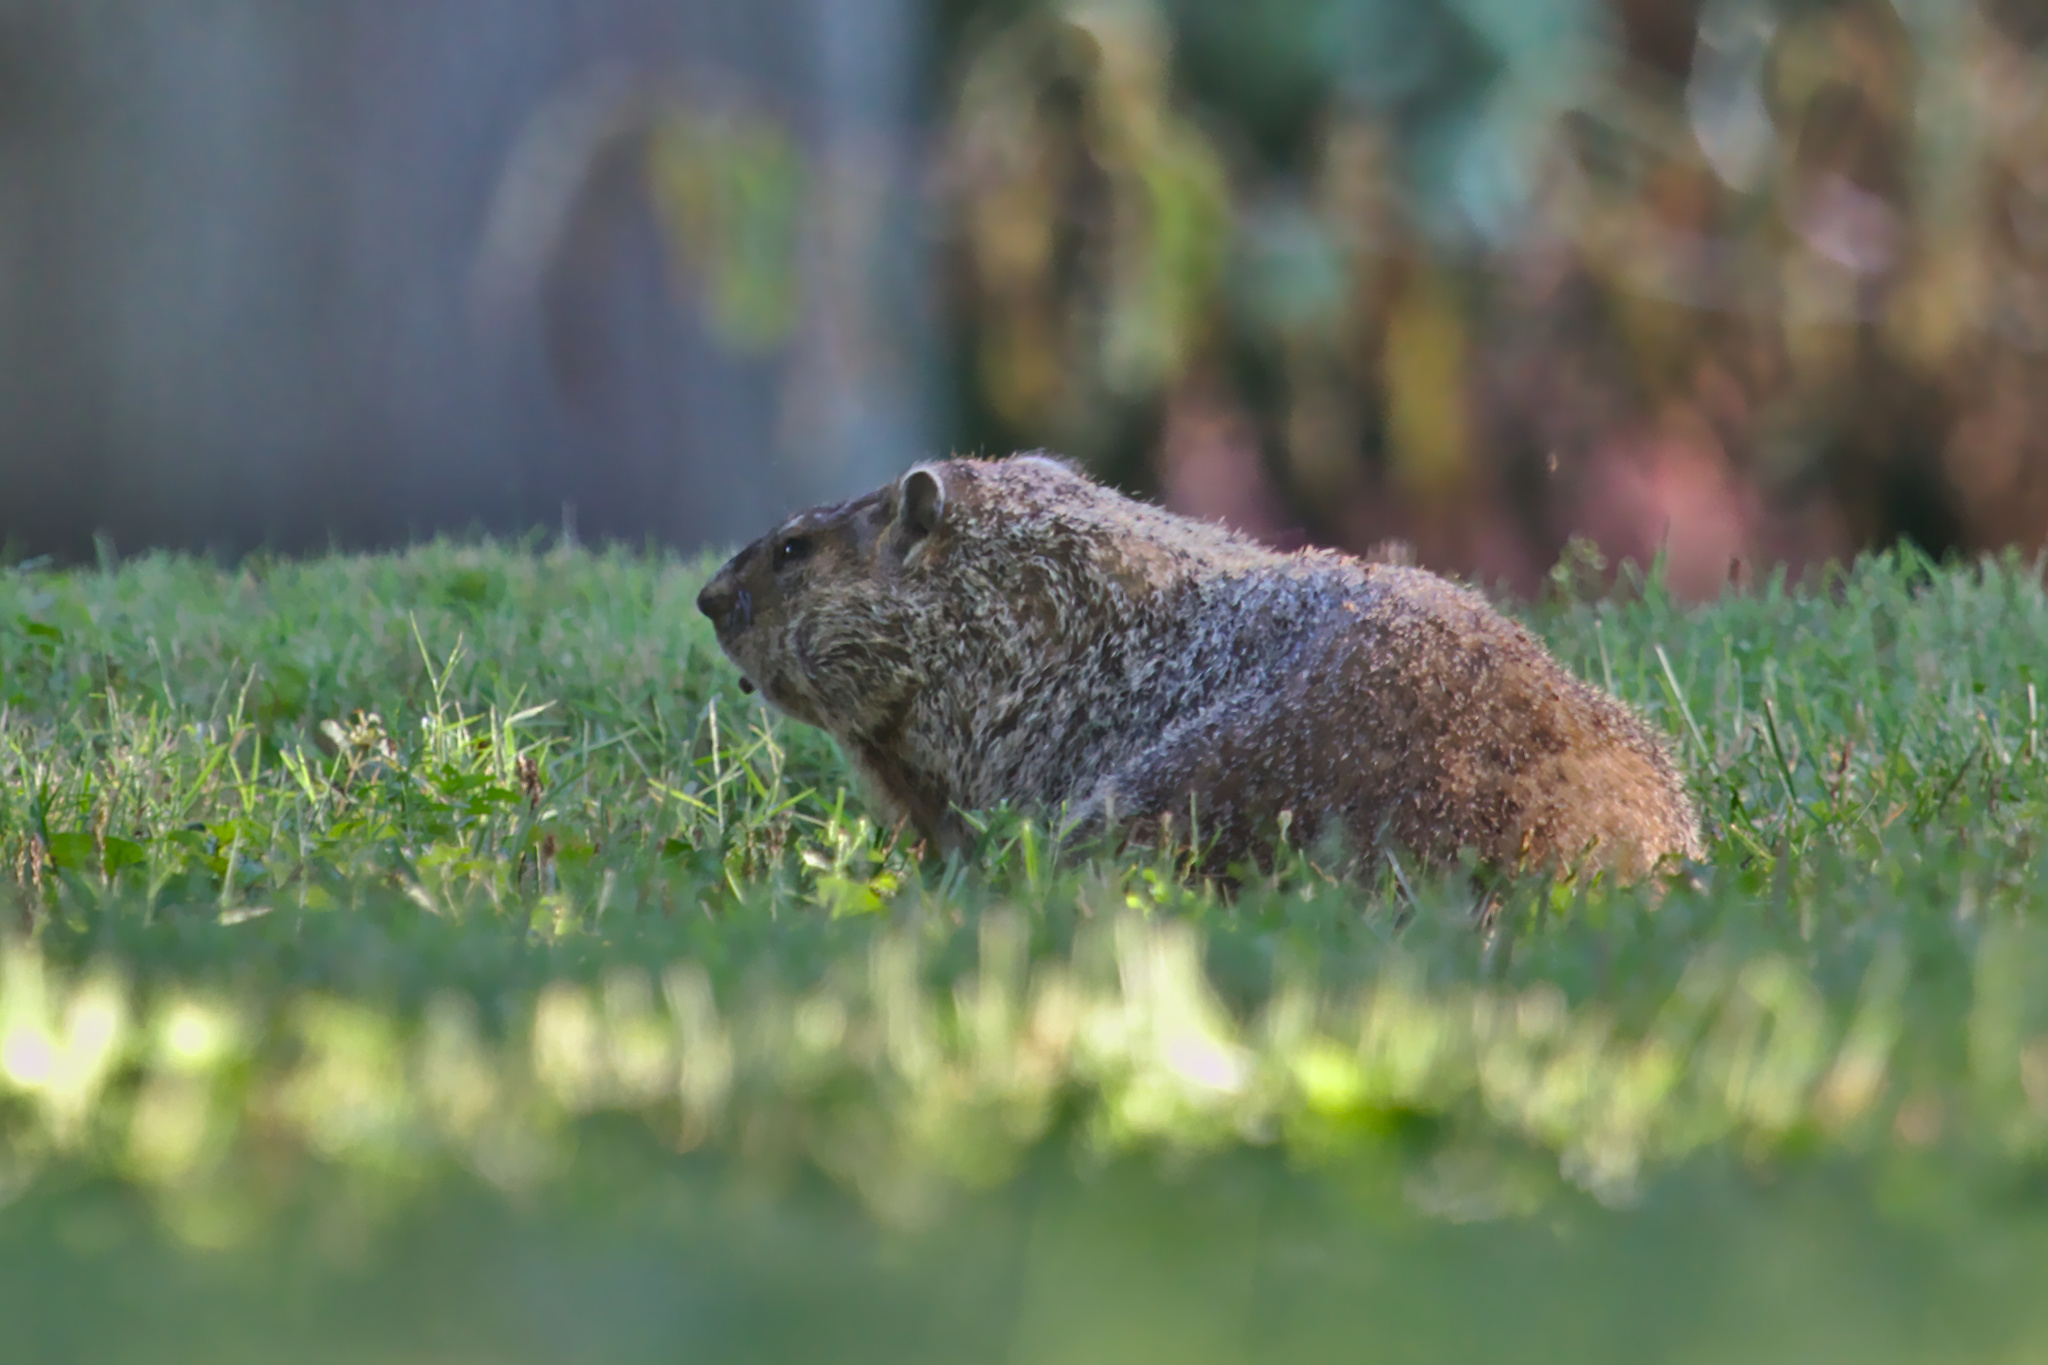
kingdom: Animalia
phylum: Chordata
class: Mammalia
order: Rodentia
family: Sciuridae
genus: Marmota
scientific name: Marmota monax
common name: Groundhog
